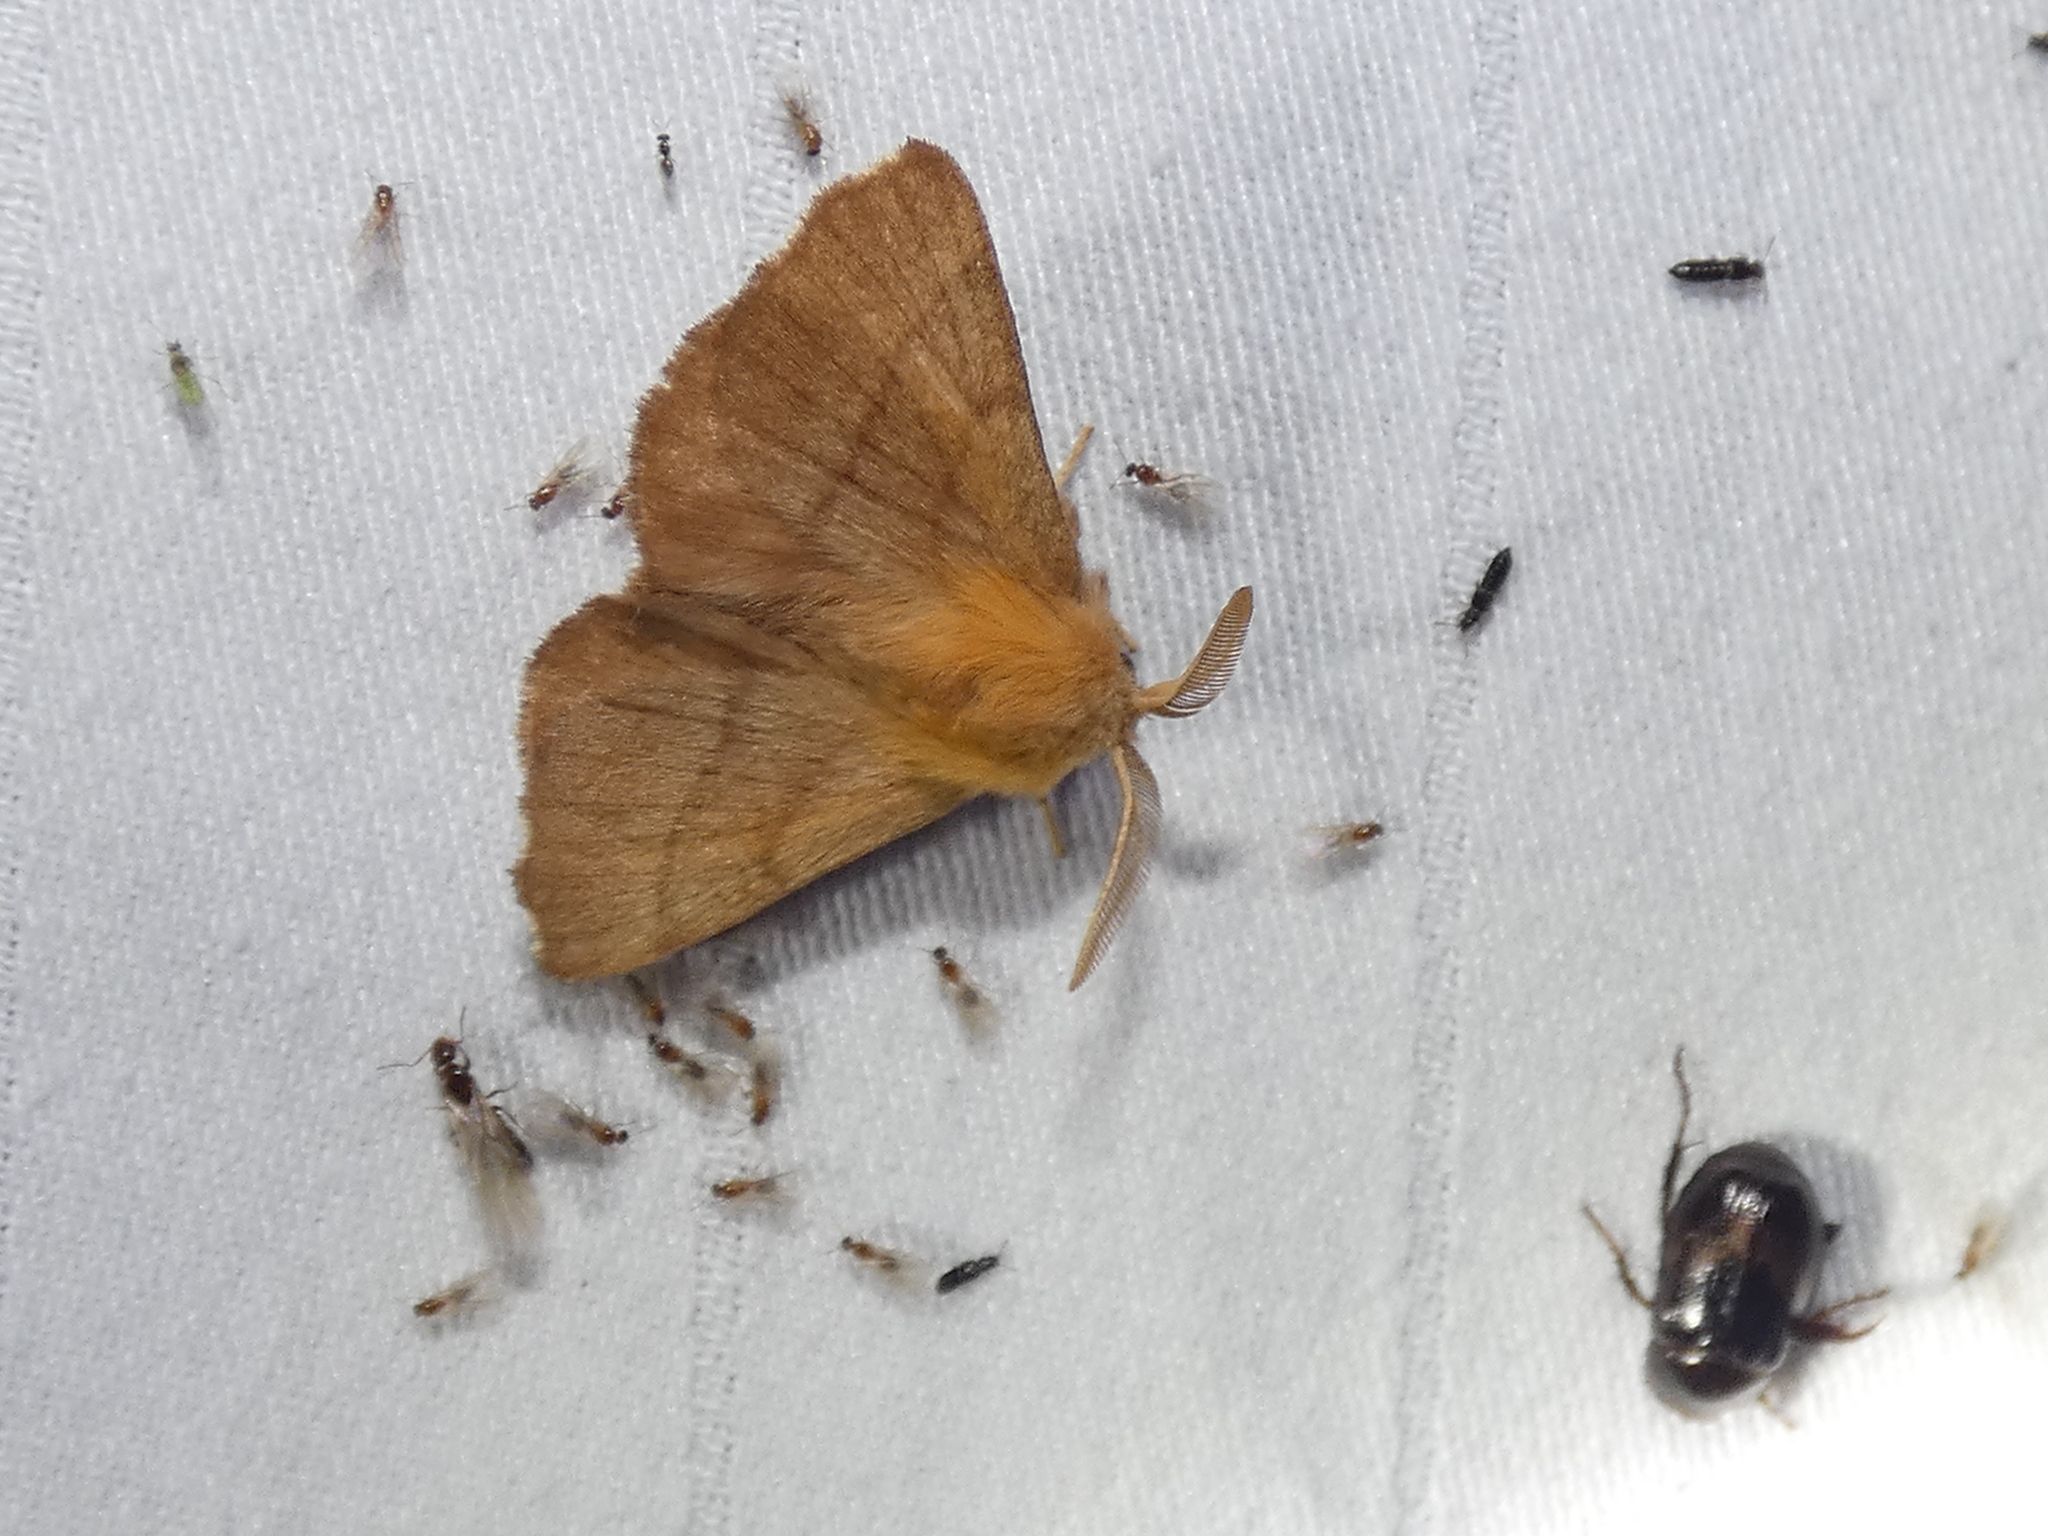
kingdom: Animalia
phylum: Arthropoda
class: Insecta
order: Lepidoptera
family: Lasiocampidae
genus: Malacosoma
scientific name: Malacosoma disstria
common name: Forest tent caterpillar
